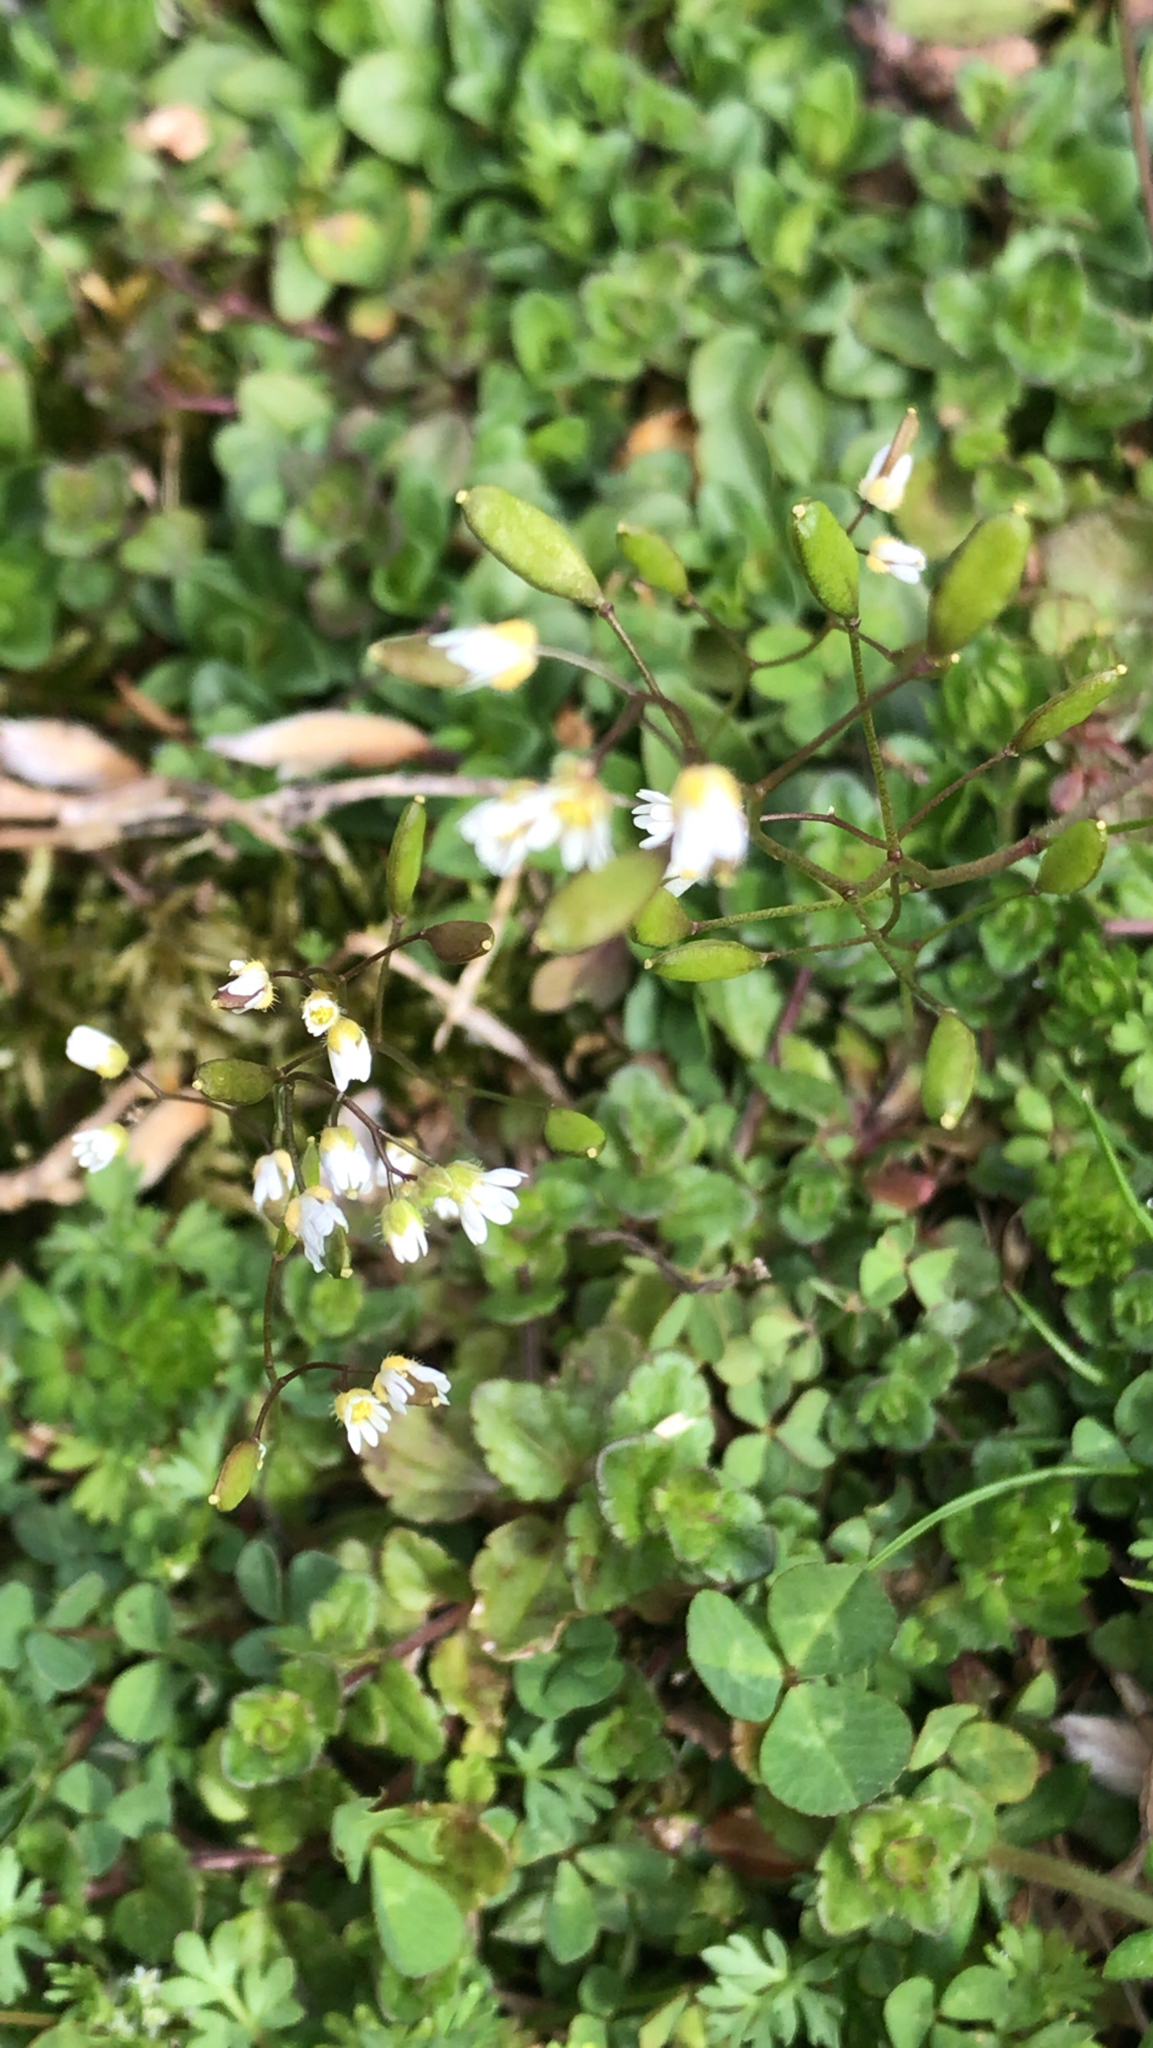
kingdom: Plantae
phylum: Tracheophyta
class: Magnoliopsida
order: Brassicales
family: Brassicaceae
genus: Draba
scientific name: Draba verna
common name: Spring draba
